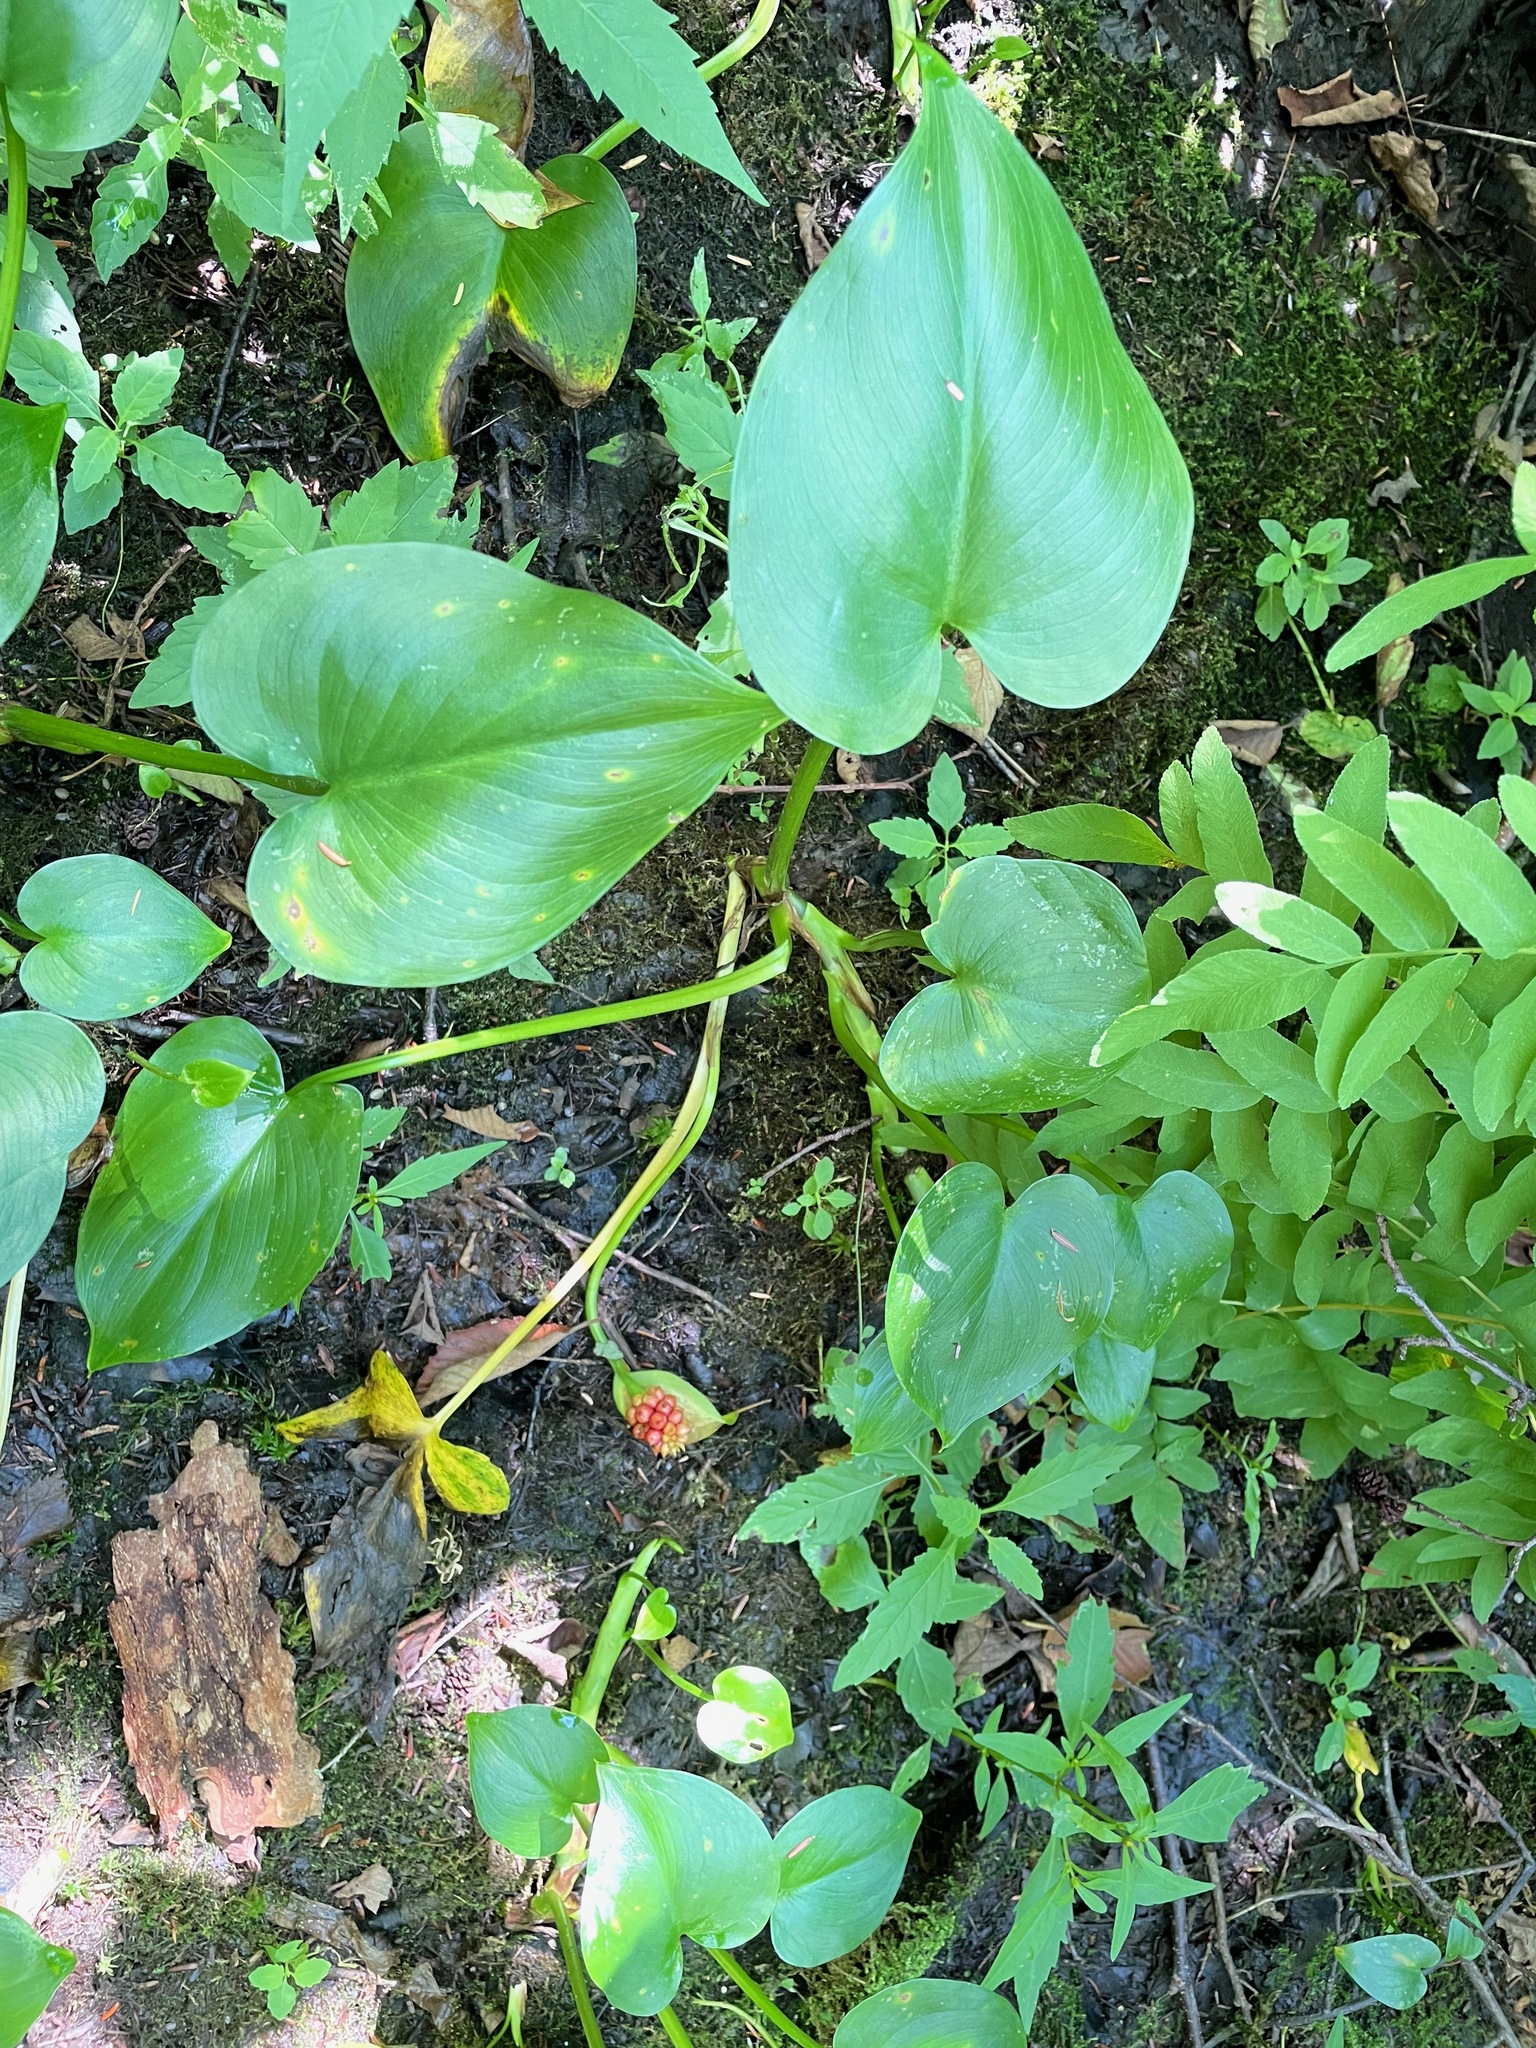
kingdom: Plantae
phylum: Tracheophyta
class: Liliopsida
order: Alismatales
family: Araceae
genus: Calla
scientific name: Calla palustris
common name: Bog arum
